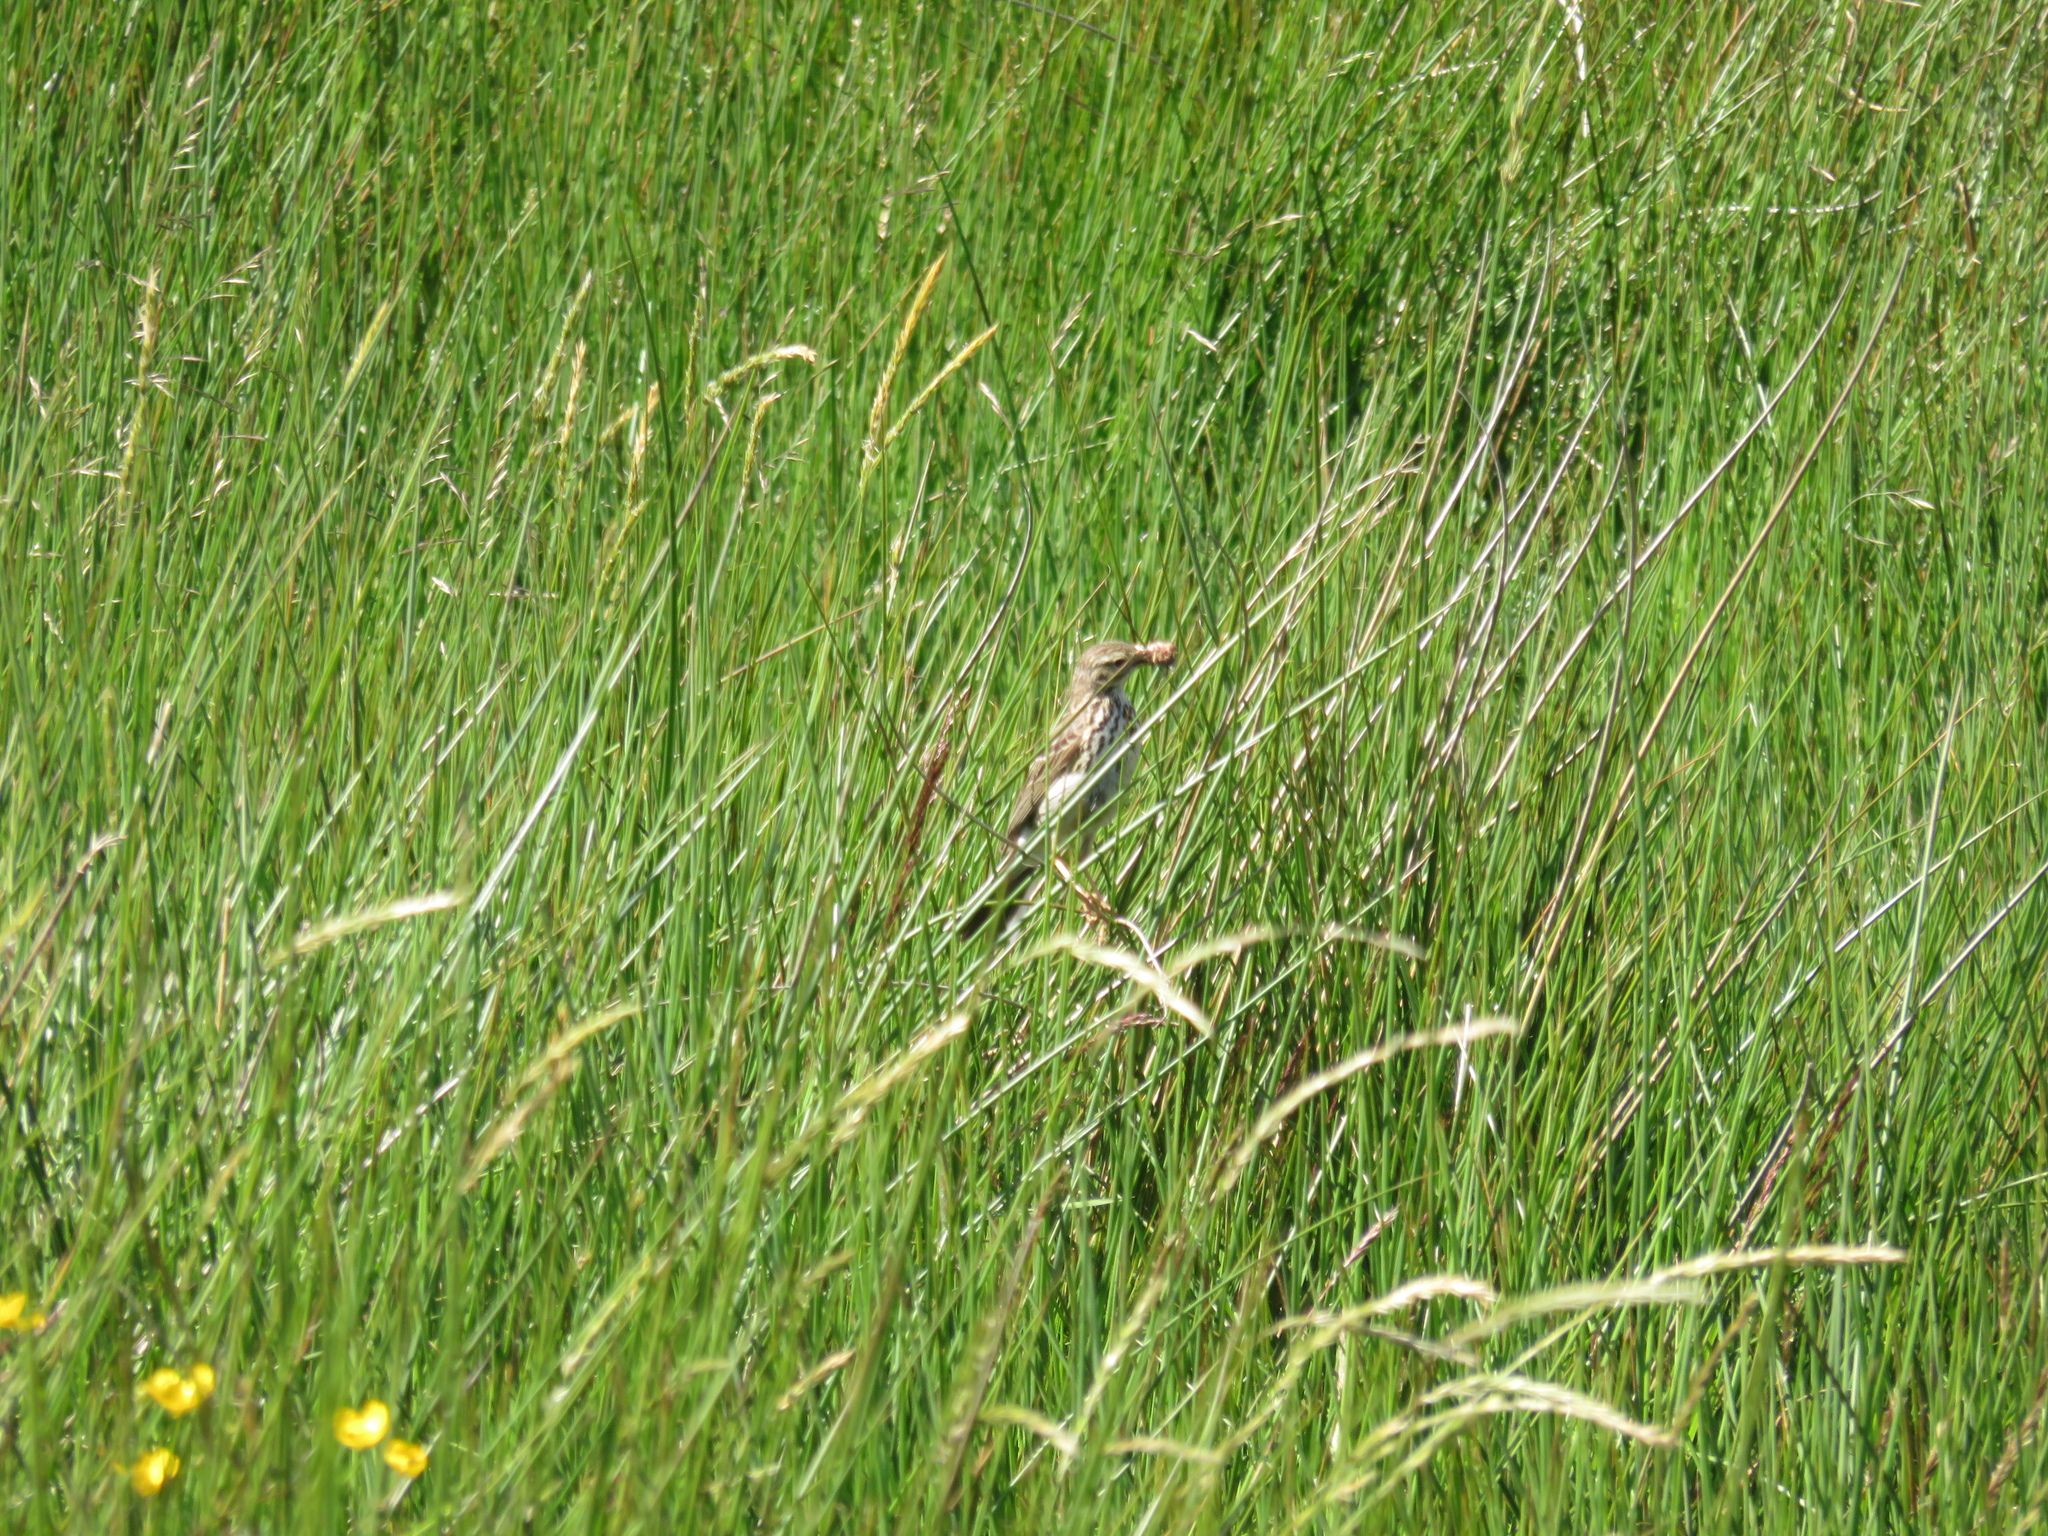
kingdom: Animalia
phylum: Chordata
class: Aves
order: Passeriformes
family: Motacillidae
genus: Anthus
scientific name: Anthus pratensis
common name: Meadow pipit
